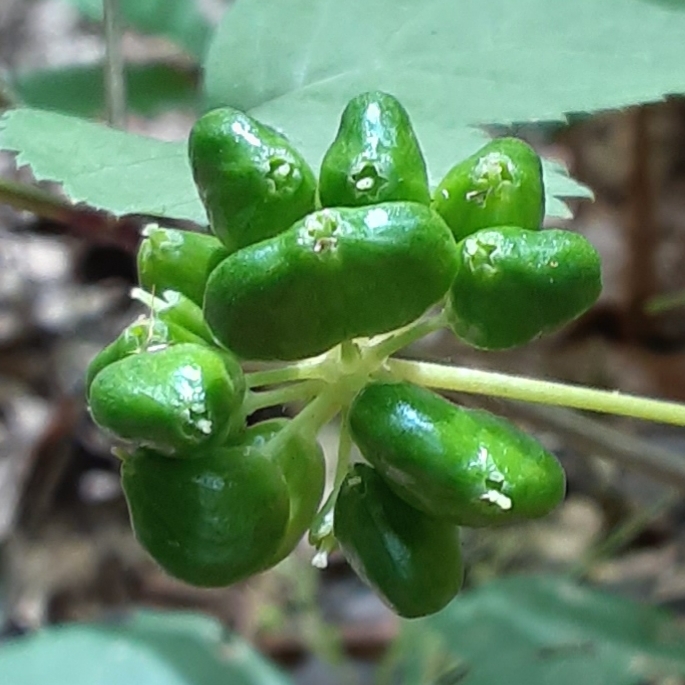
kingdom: Plantae
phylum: Tracheophyta
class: Magnoliopsida
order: Apiales
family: Araliaceae
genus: Panax
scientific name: Panax quinquefolius
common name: American ginseng
